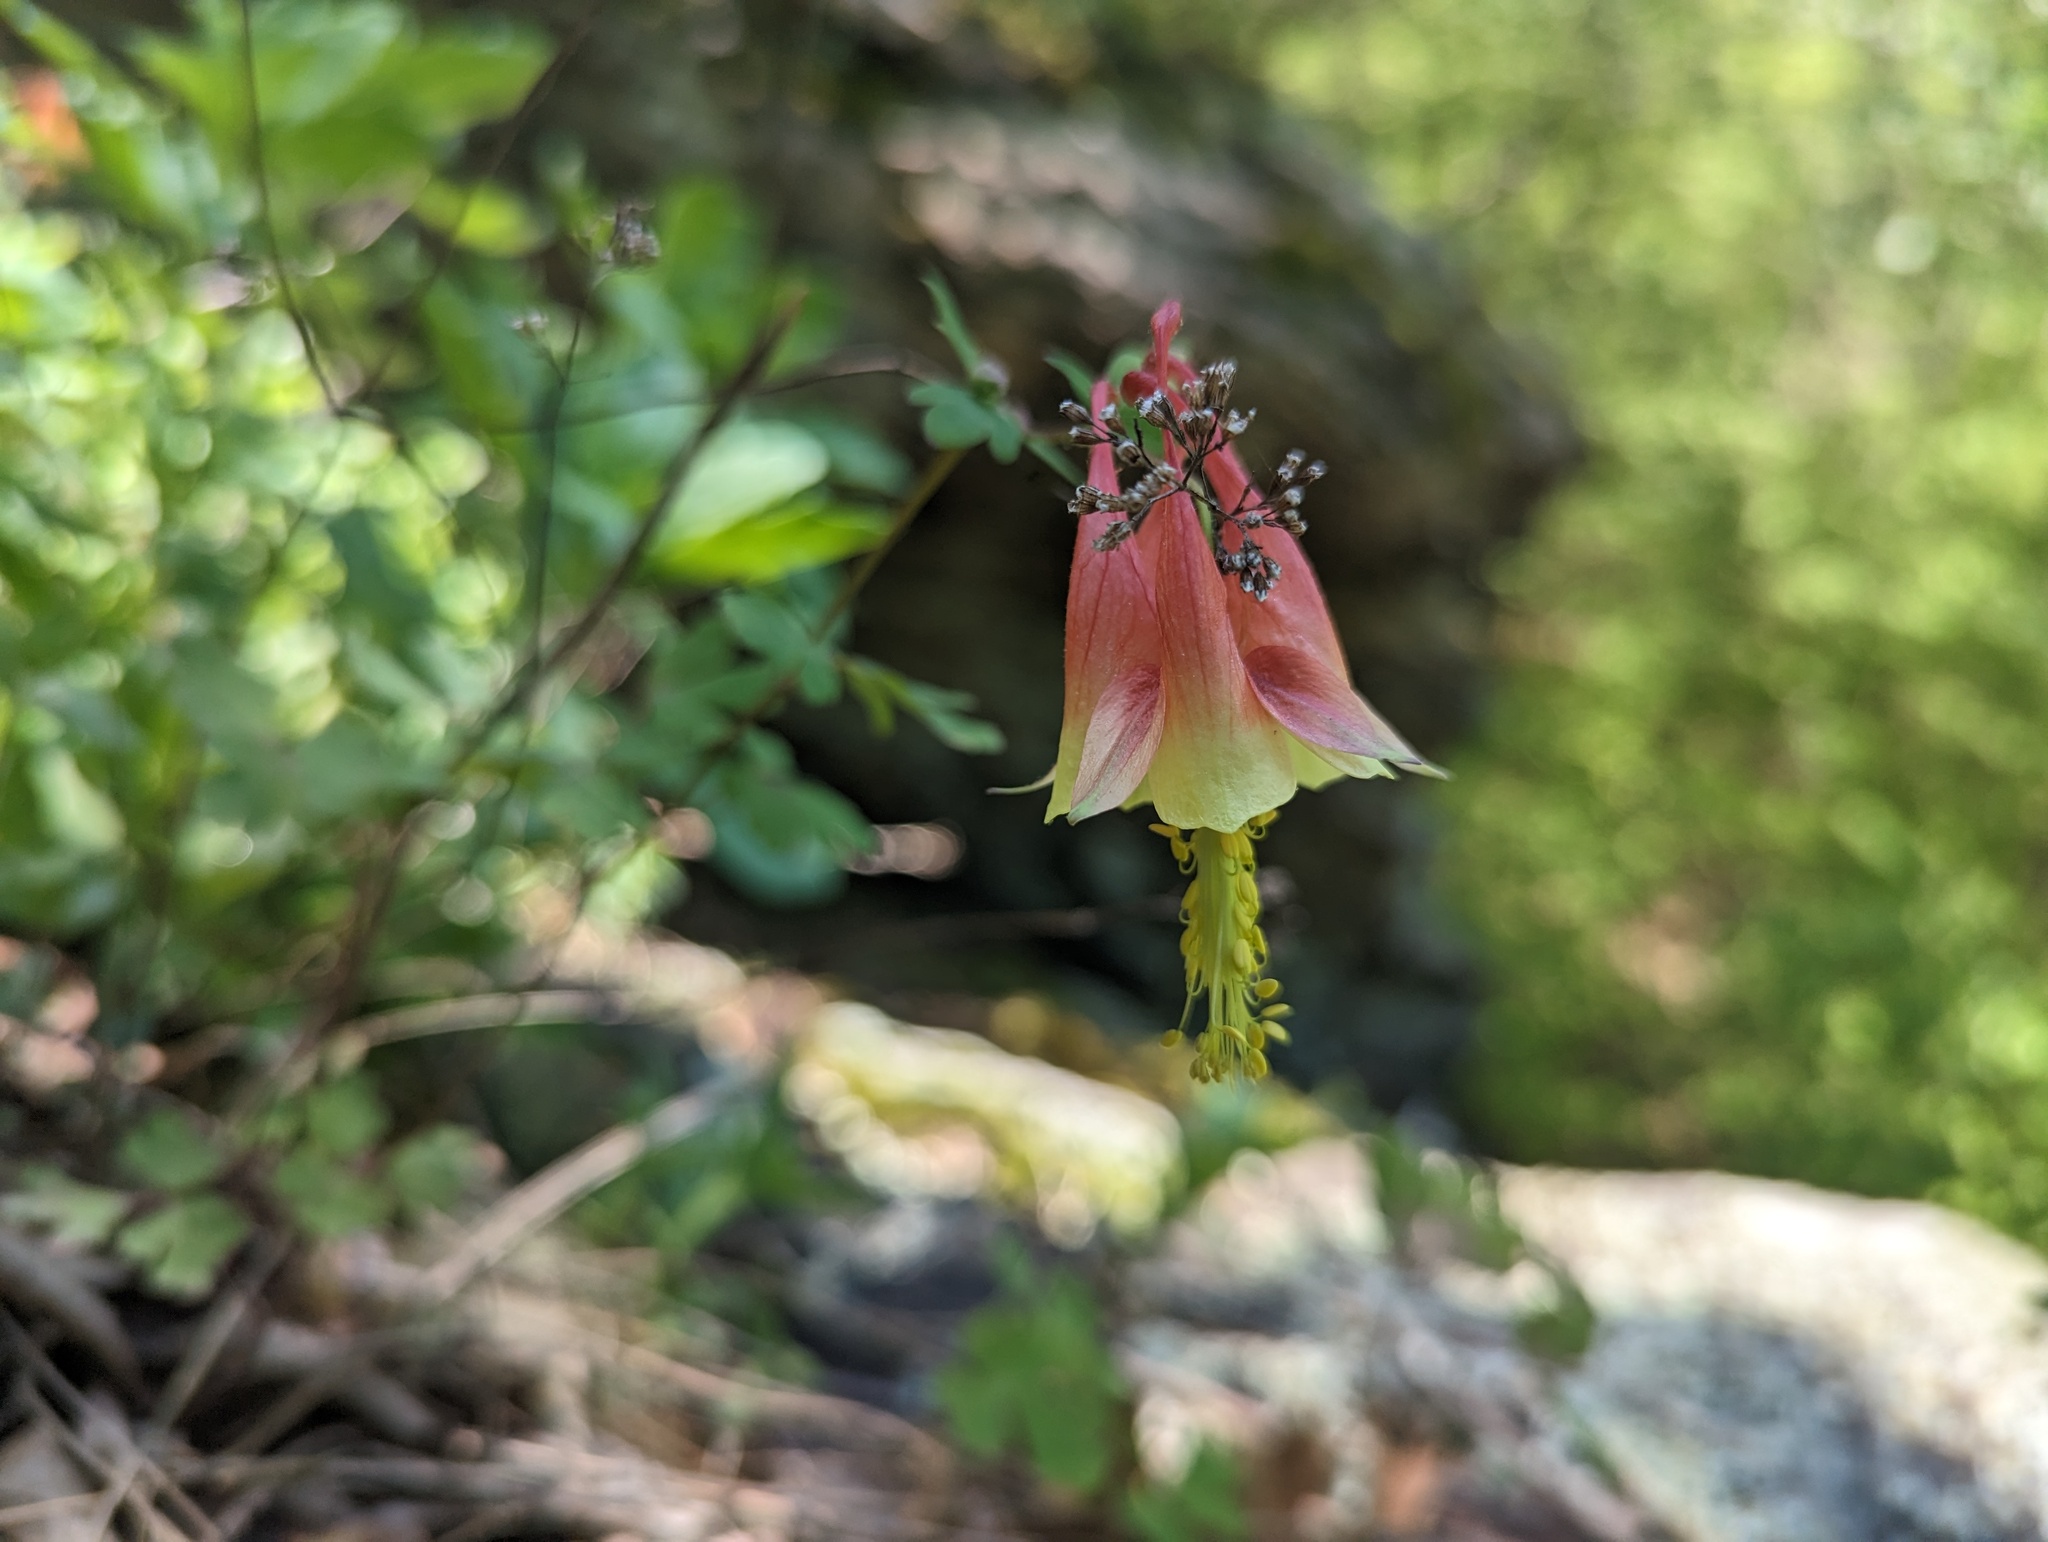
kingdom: Plantae
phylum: Tracheophyta
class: Magnoliopsida
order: Ranunculales
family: Ranunculaceae
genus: Aquilegia
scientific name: Aquilegia canadensis
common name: American columbine
